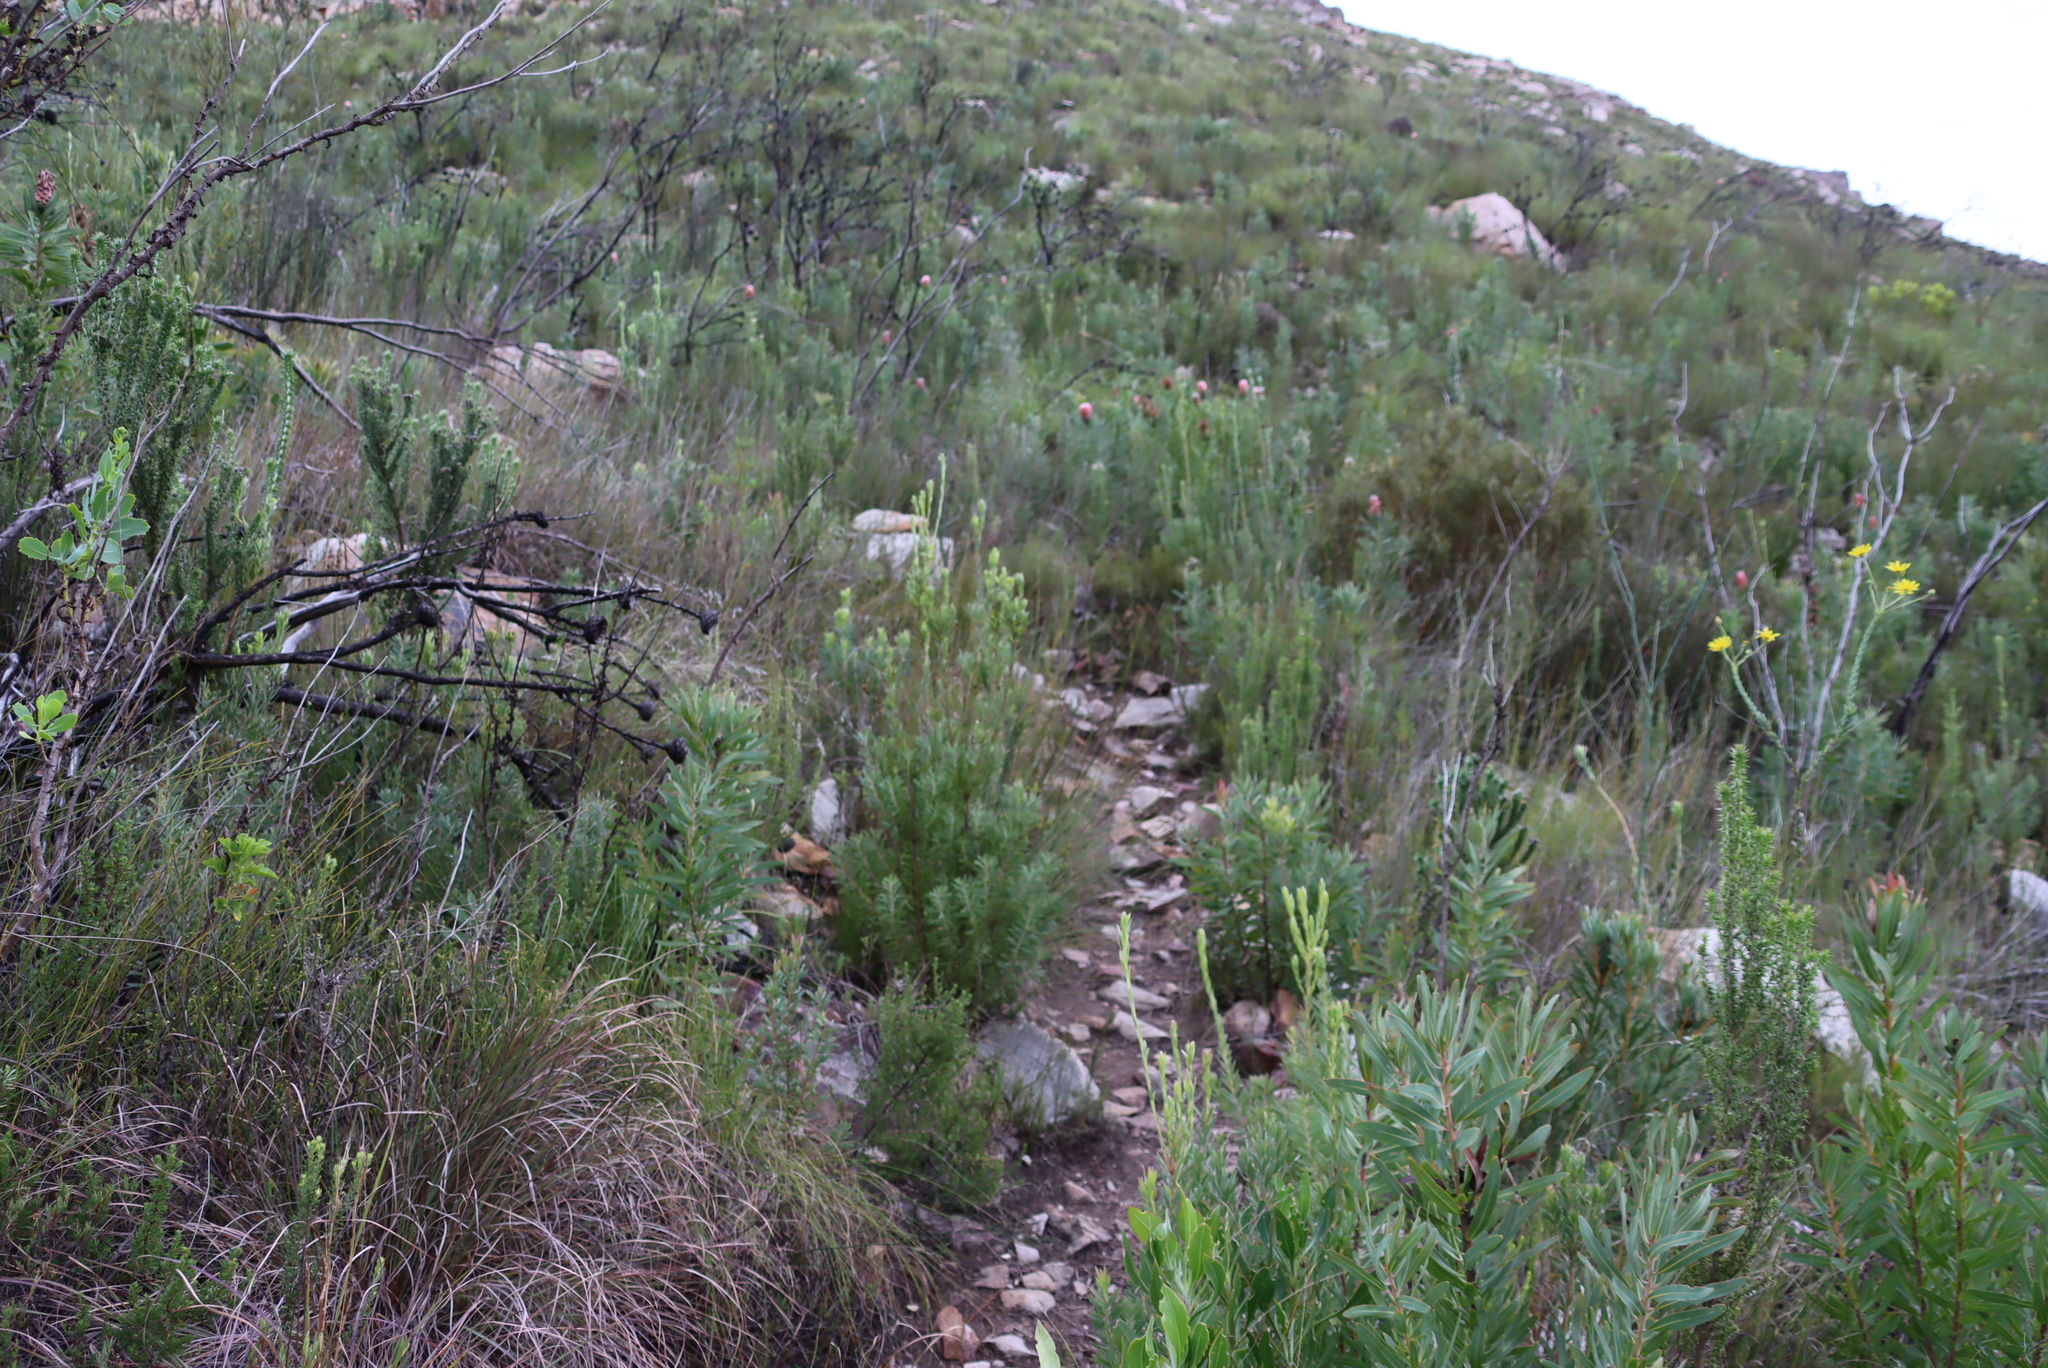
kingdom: Plantae
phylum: Tracheophyta
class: Magnoliopsida
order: Proteales
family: Proteaceae
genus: Leucadendron
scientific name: Leucadendron loeriense
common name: Loerie conebush
